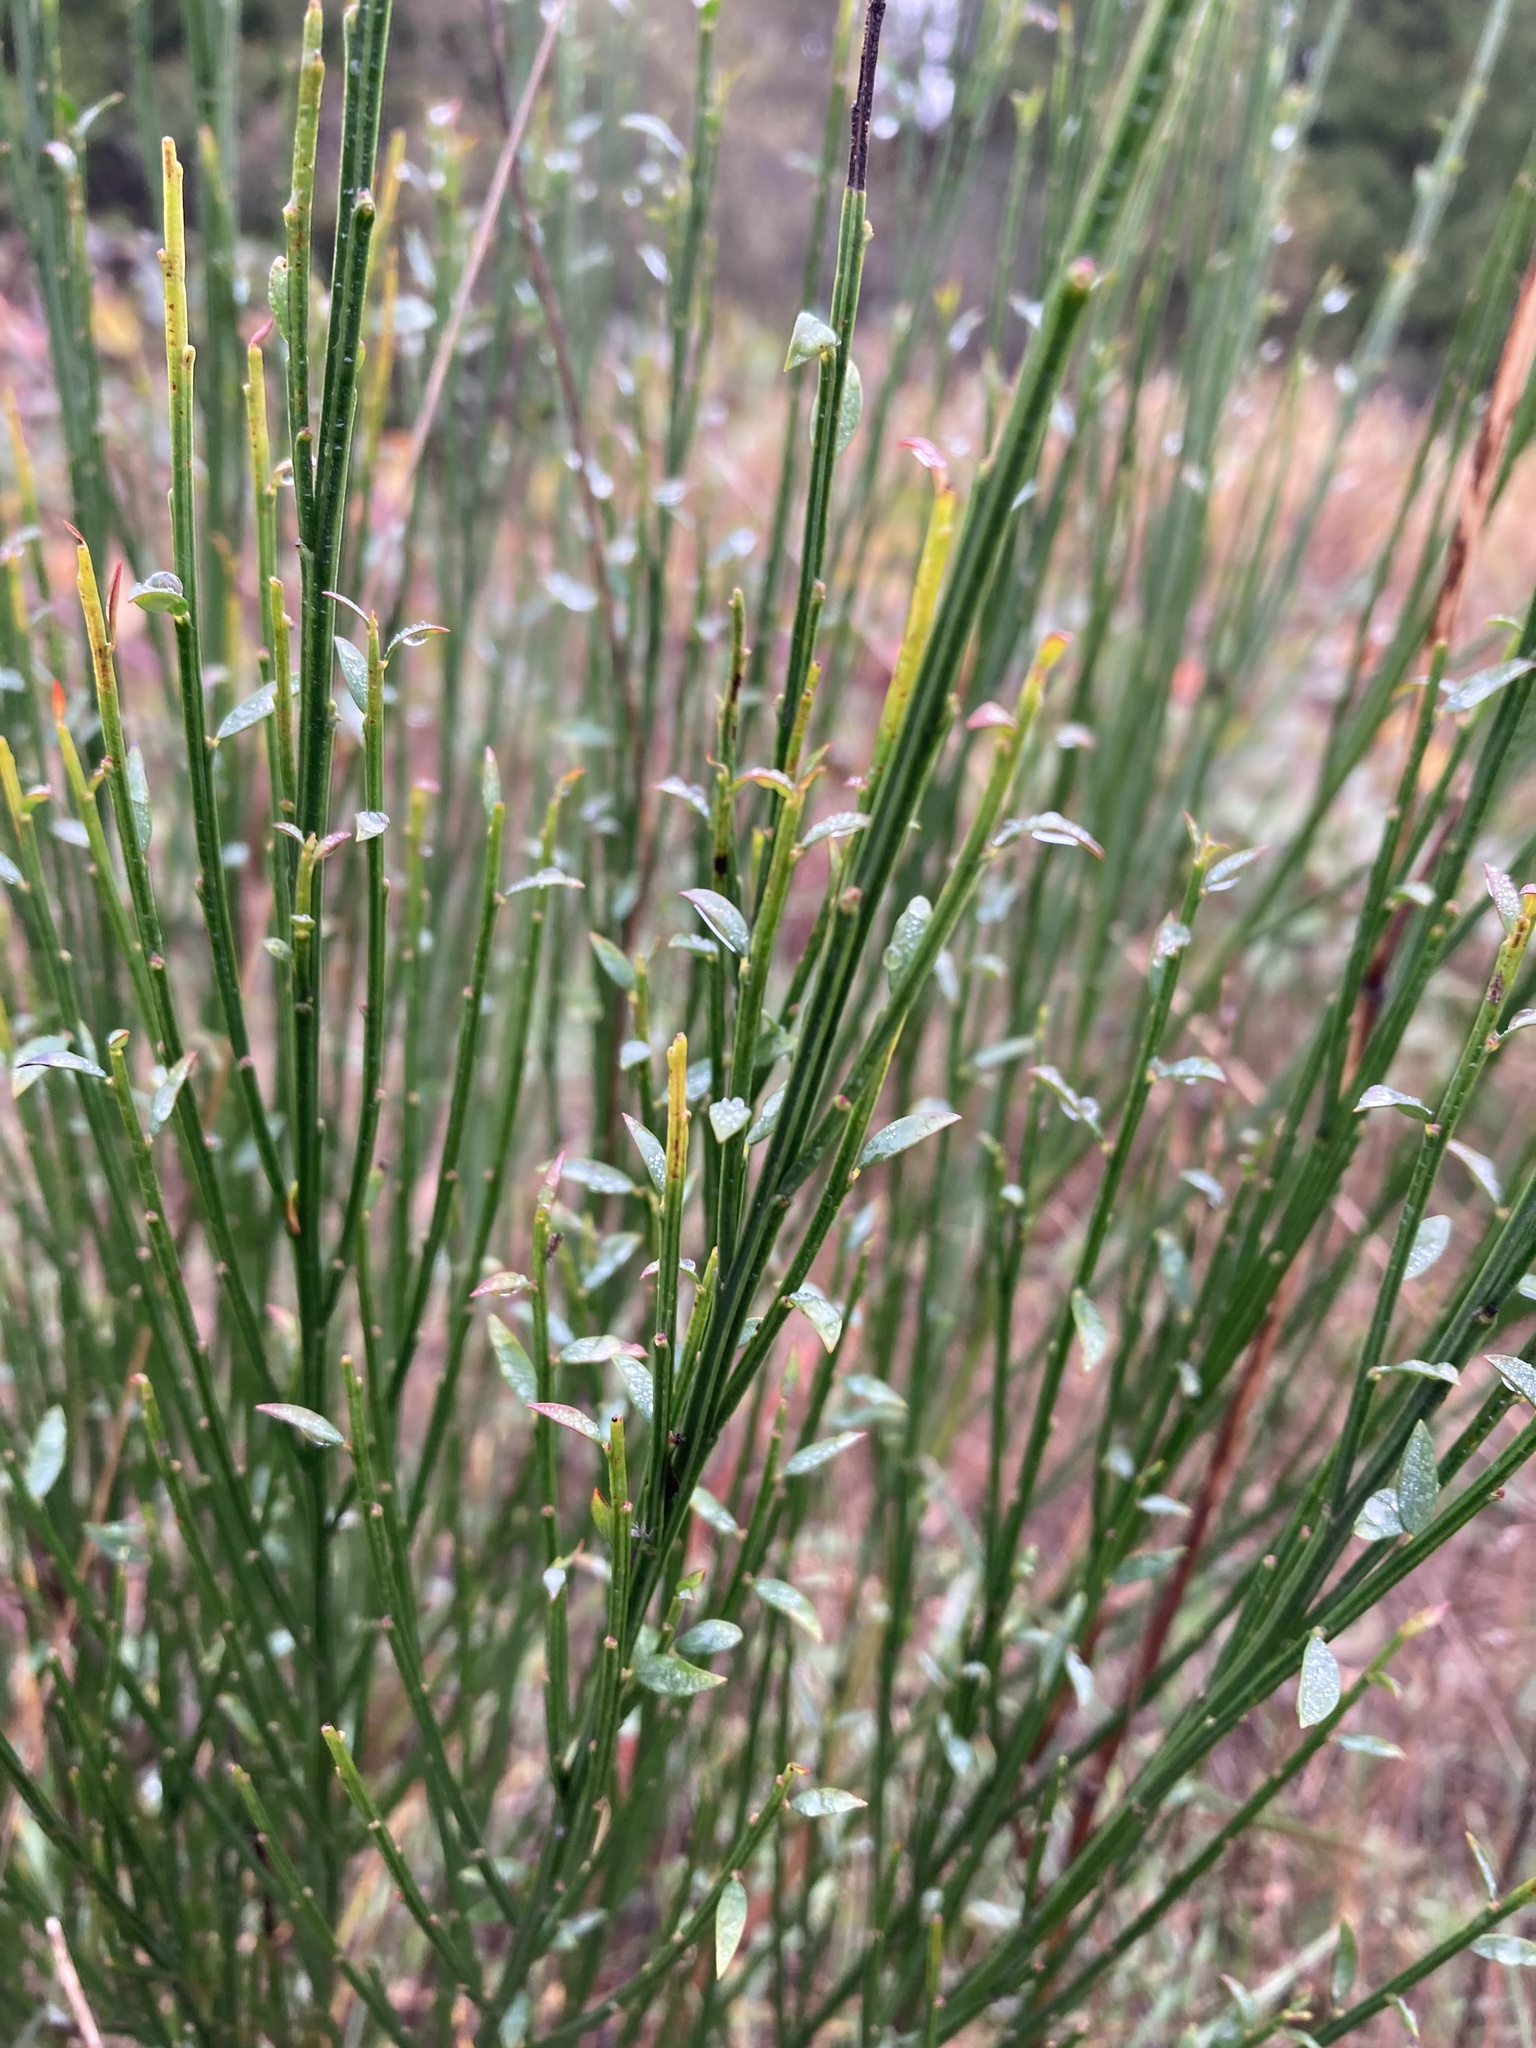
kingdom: Plantae
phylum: Tracheophyta
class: Magnoliopsida
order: Fabales
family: Fabaceae
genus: Cytisus
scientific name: Cytisus scoparius
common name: Scotch broom
